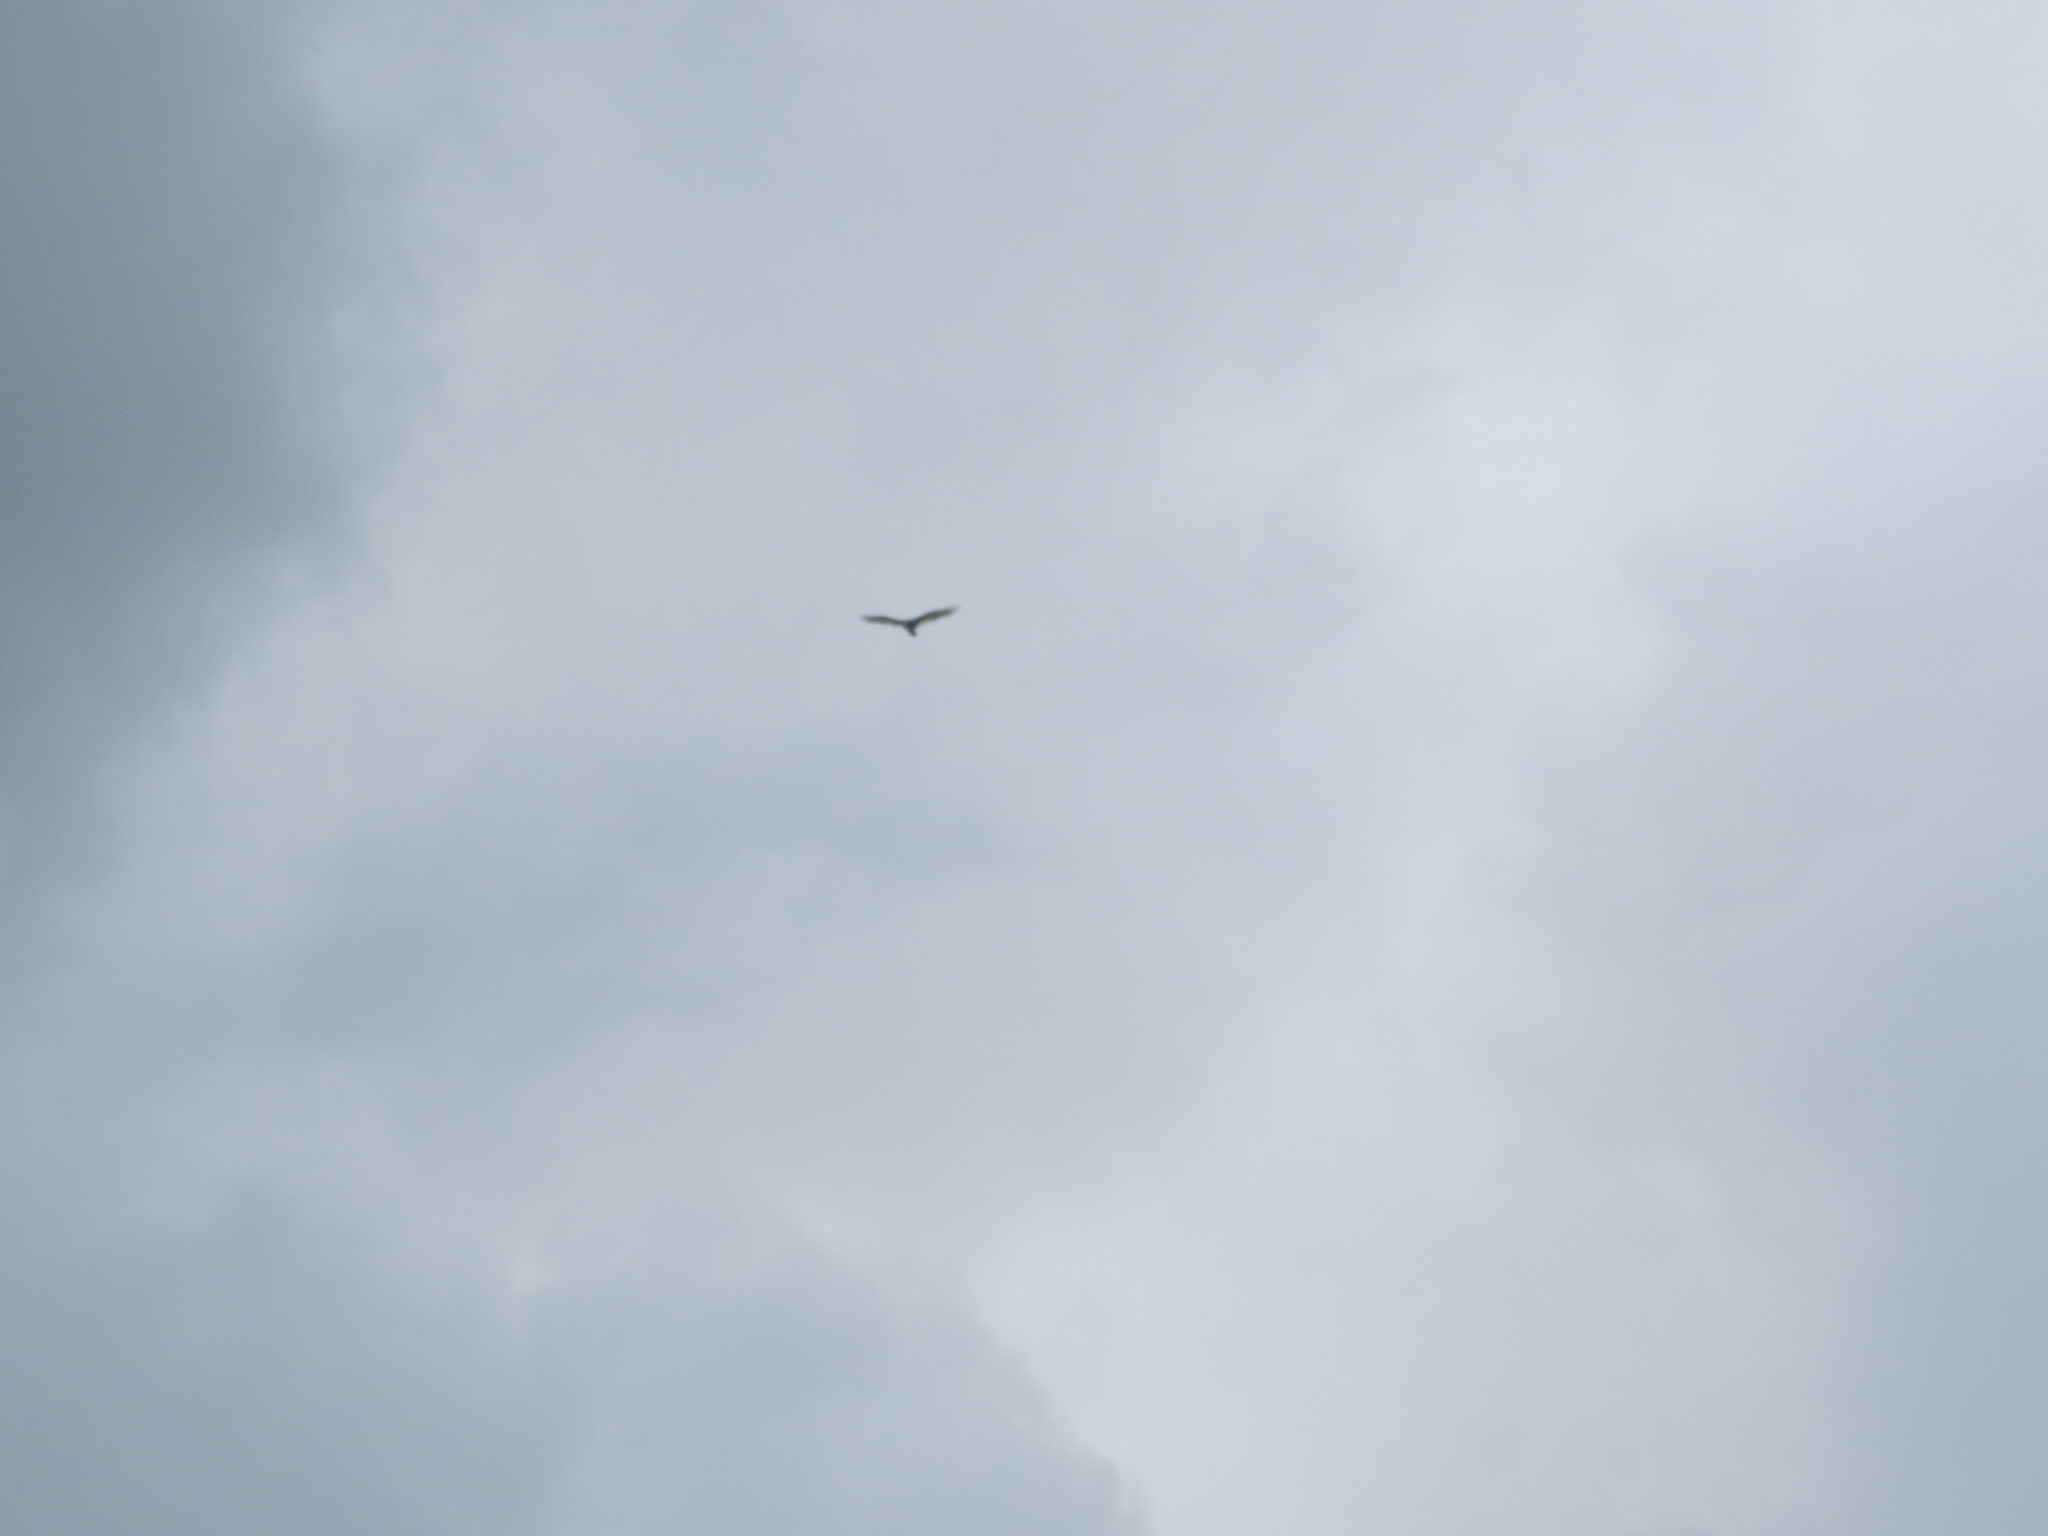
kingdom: Animalia
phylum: Chordata
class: Aves
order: Accipitriformes
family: Cathartidae
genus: Cathartes
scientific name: Cathartes aura
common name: Turkey vulture
